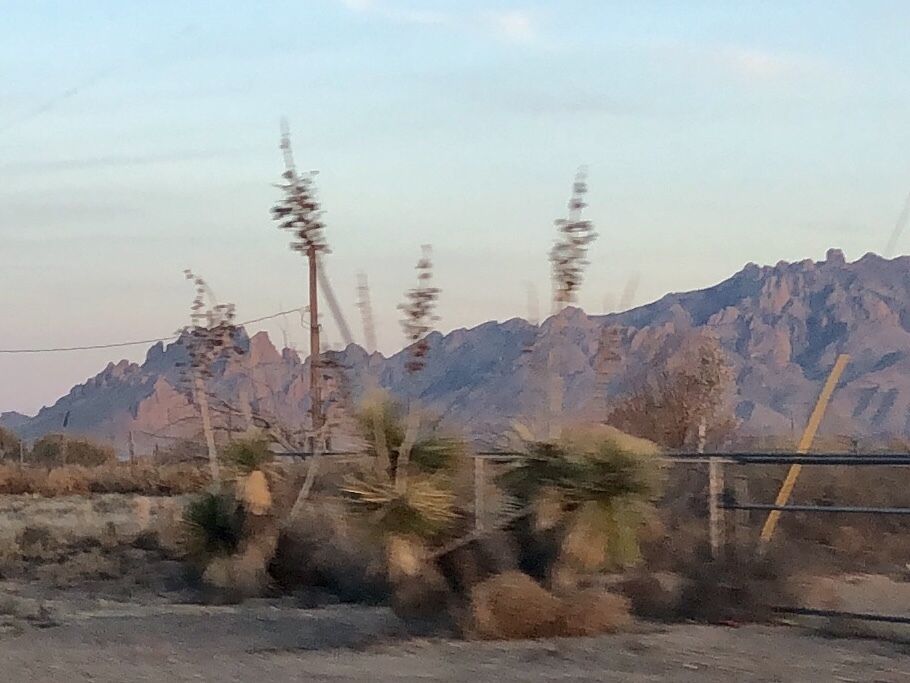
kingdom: Plantae
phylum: Tracheophyta
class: Liliopsida
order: Asparagales
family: Asparagaceae
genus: Yucca
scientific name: Yucca elata
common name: Palmella
